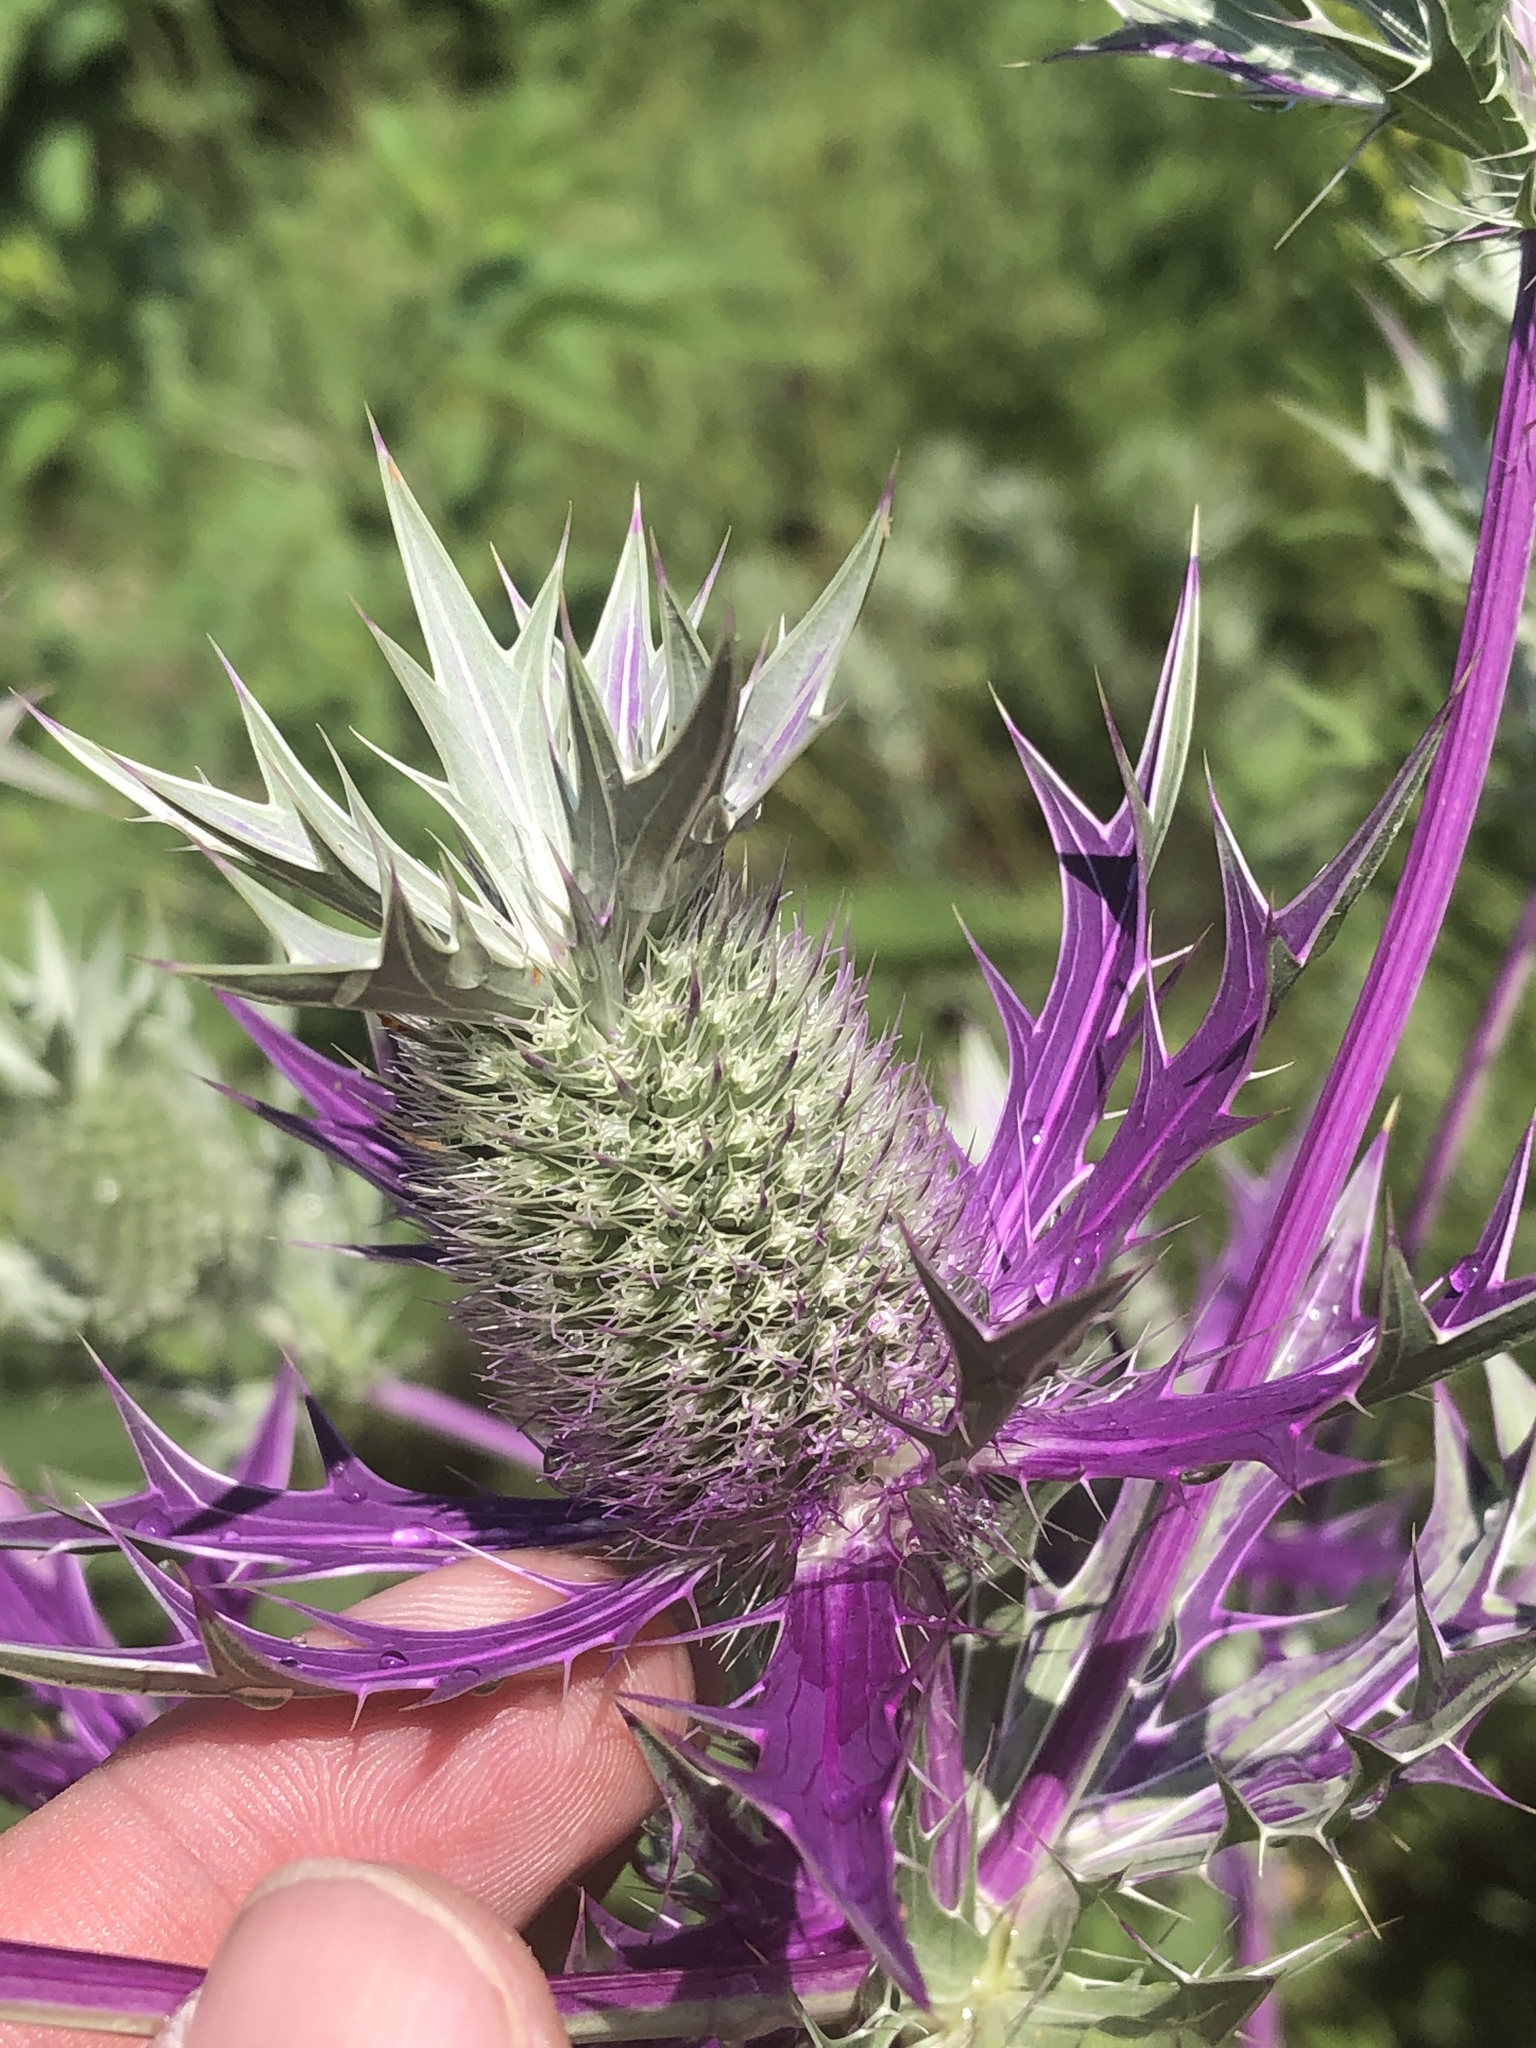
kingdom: Plantae
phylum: Tracheophyta
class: Magnoliopsida
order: Apiales
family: Apiaceae
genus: Eryngium
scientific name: Eryngium leavenworthii
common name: Leavenworth's eryngo
